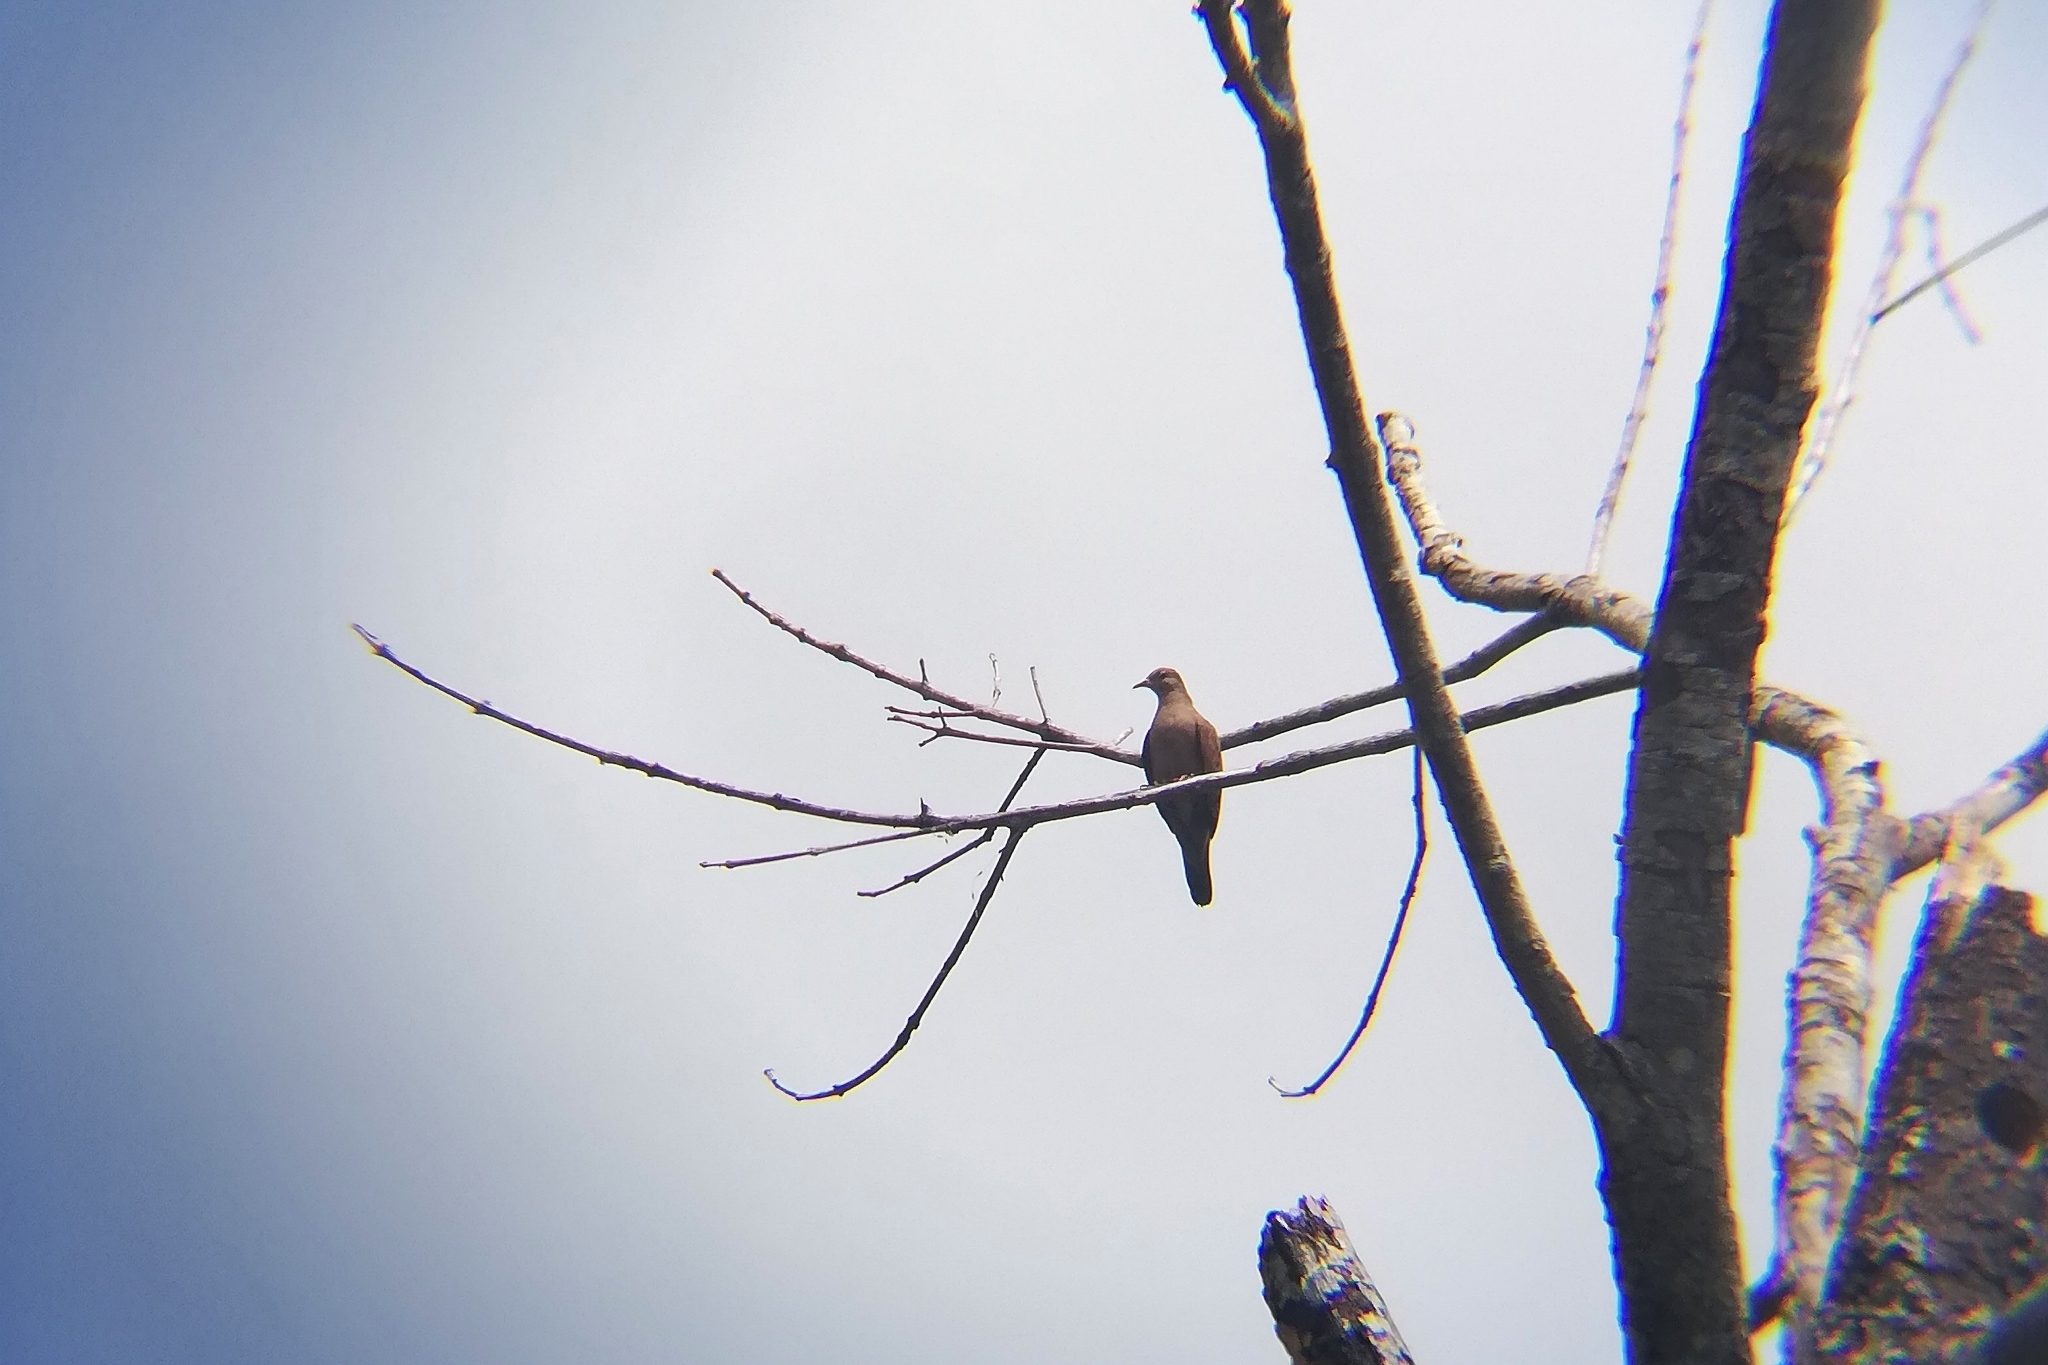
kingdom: Animalia
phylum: Chordata
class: Aves
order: Columbiformes
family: Columbidae
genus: Columbina
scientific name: Columbina talpacoti
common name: Ruddy ground dove
